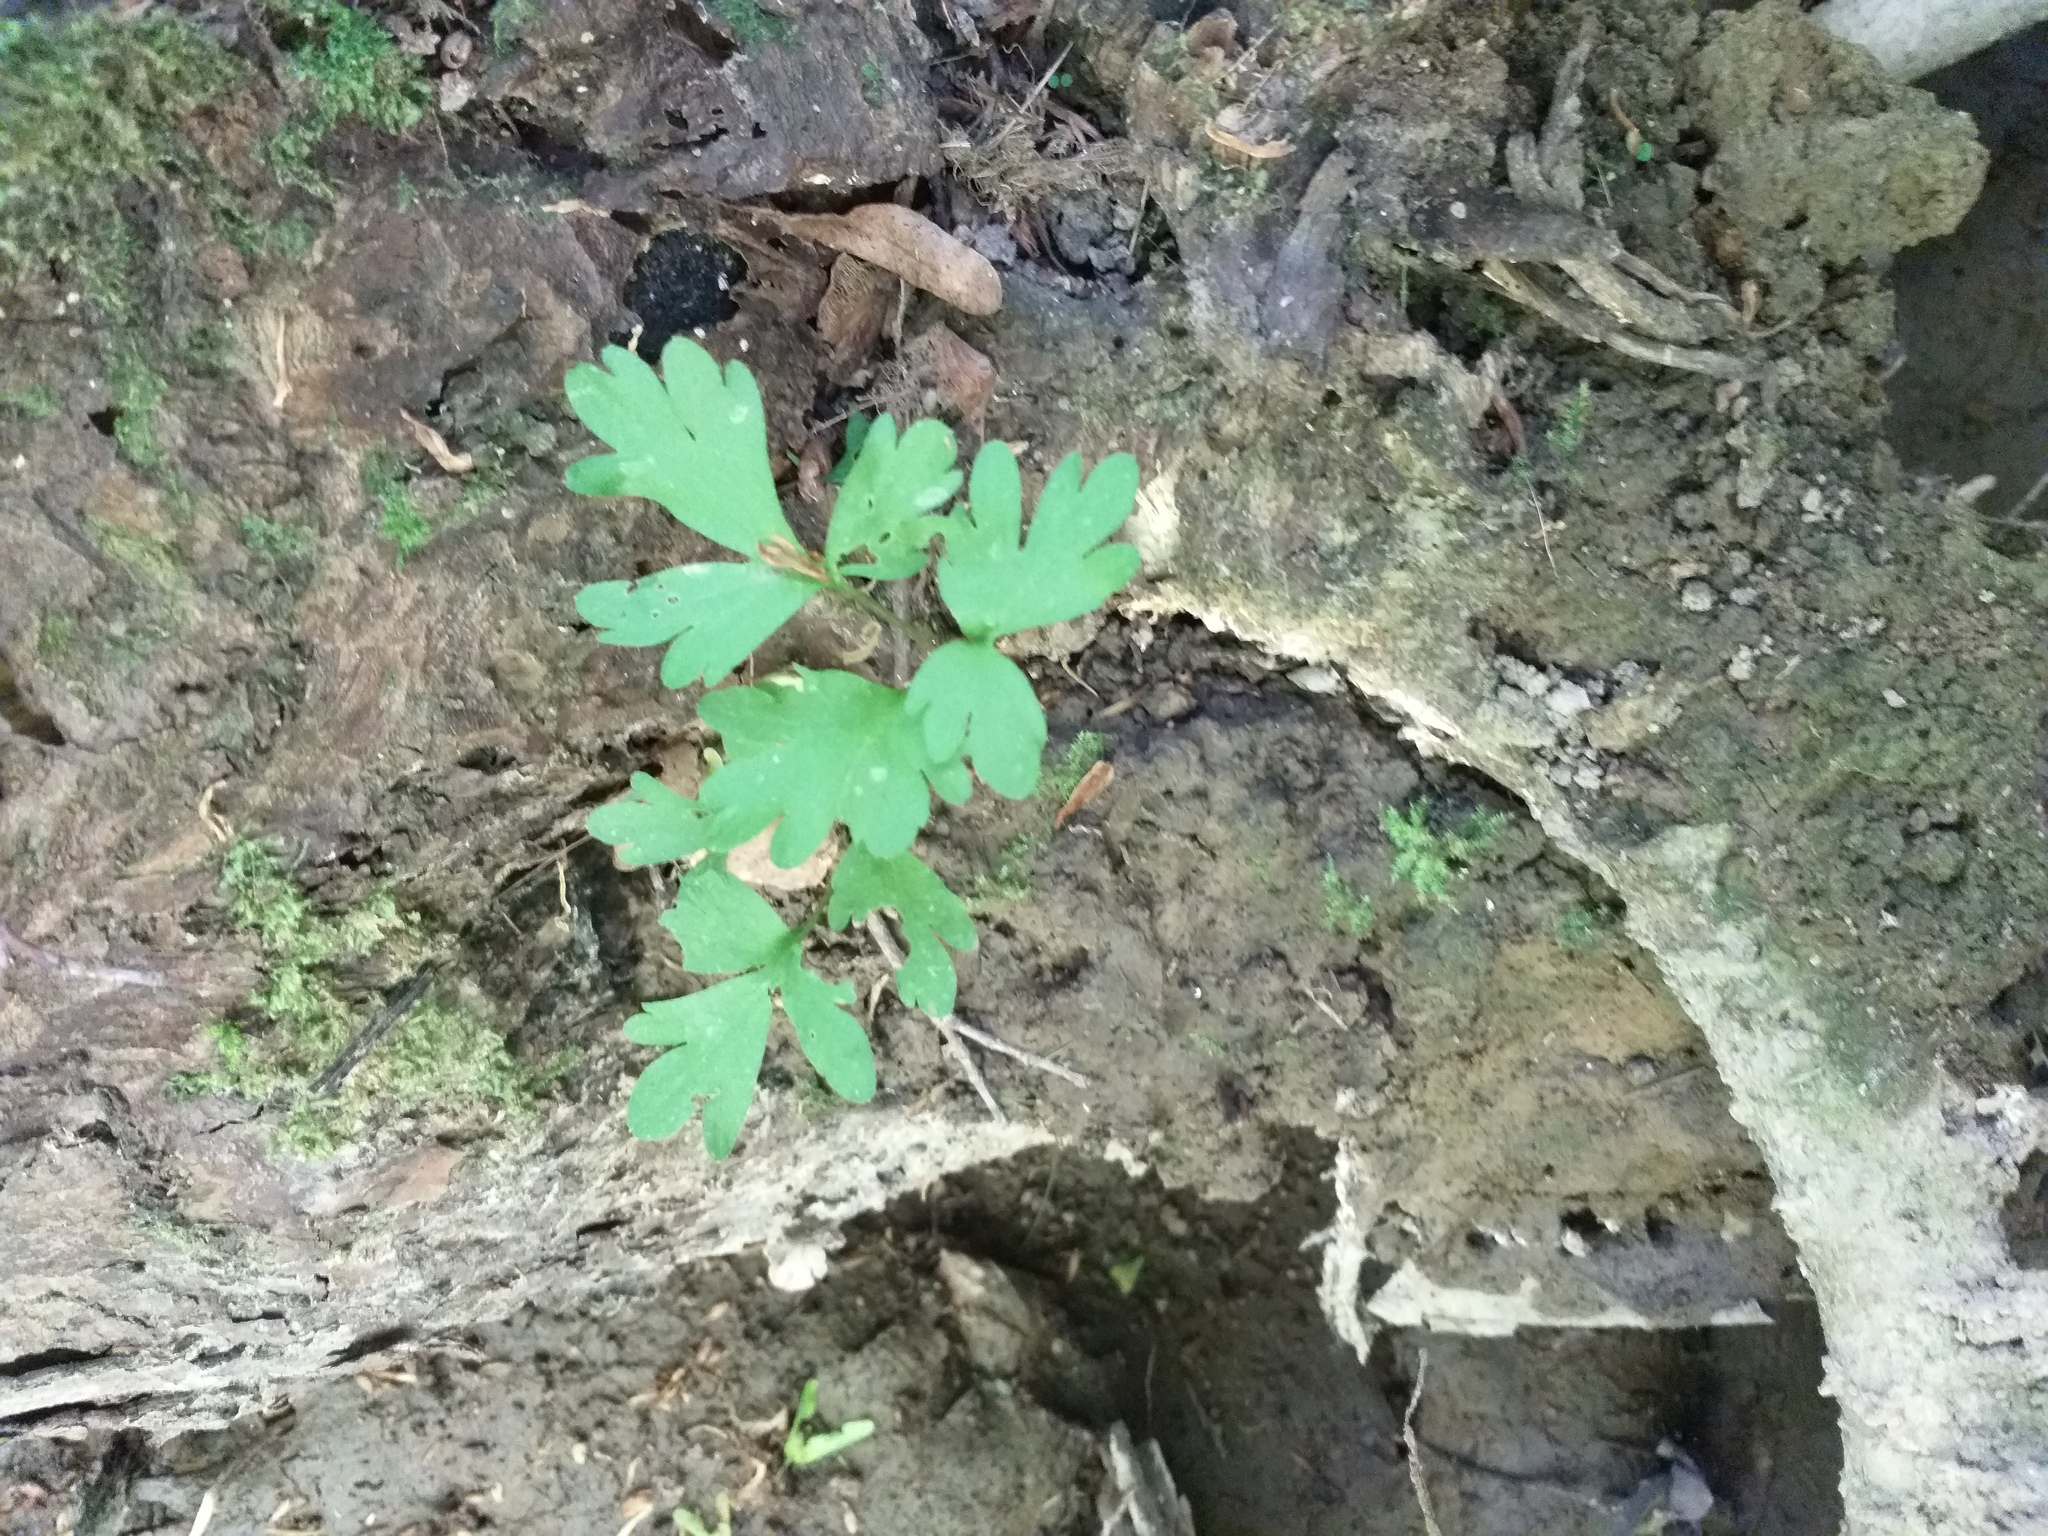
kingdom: Plantae
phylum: Tracheophyta
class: Magnoliopsida
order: Dipsacales
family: Viburnaceae
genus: Adoxa
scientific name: Adoxa moschatellina
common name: Moschatel
